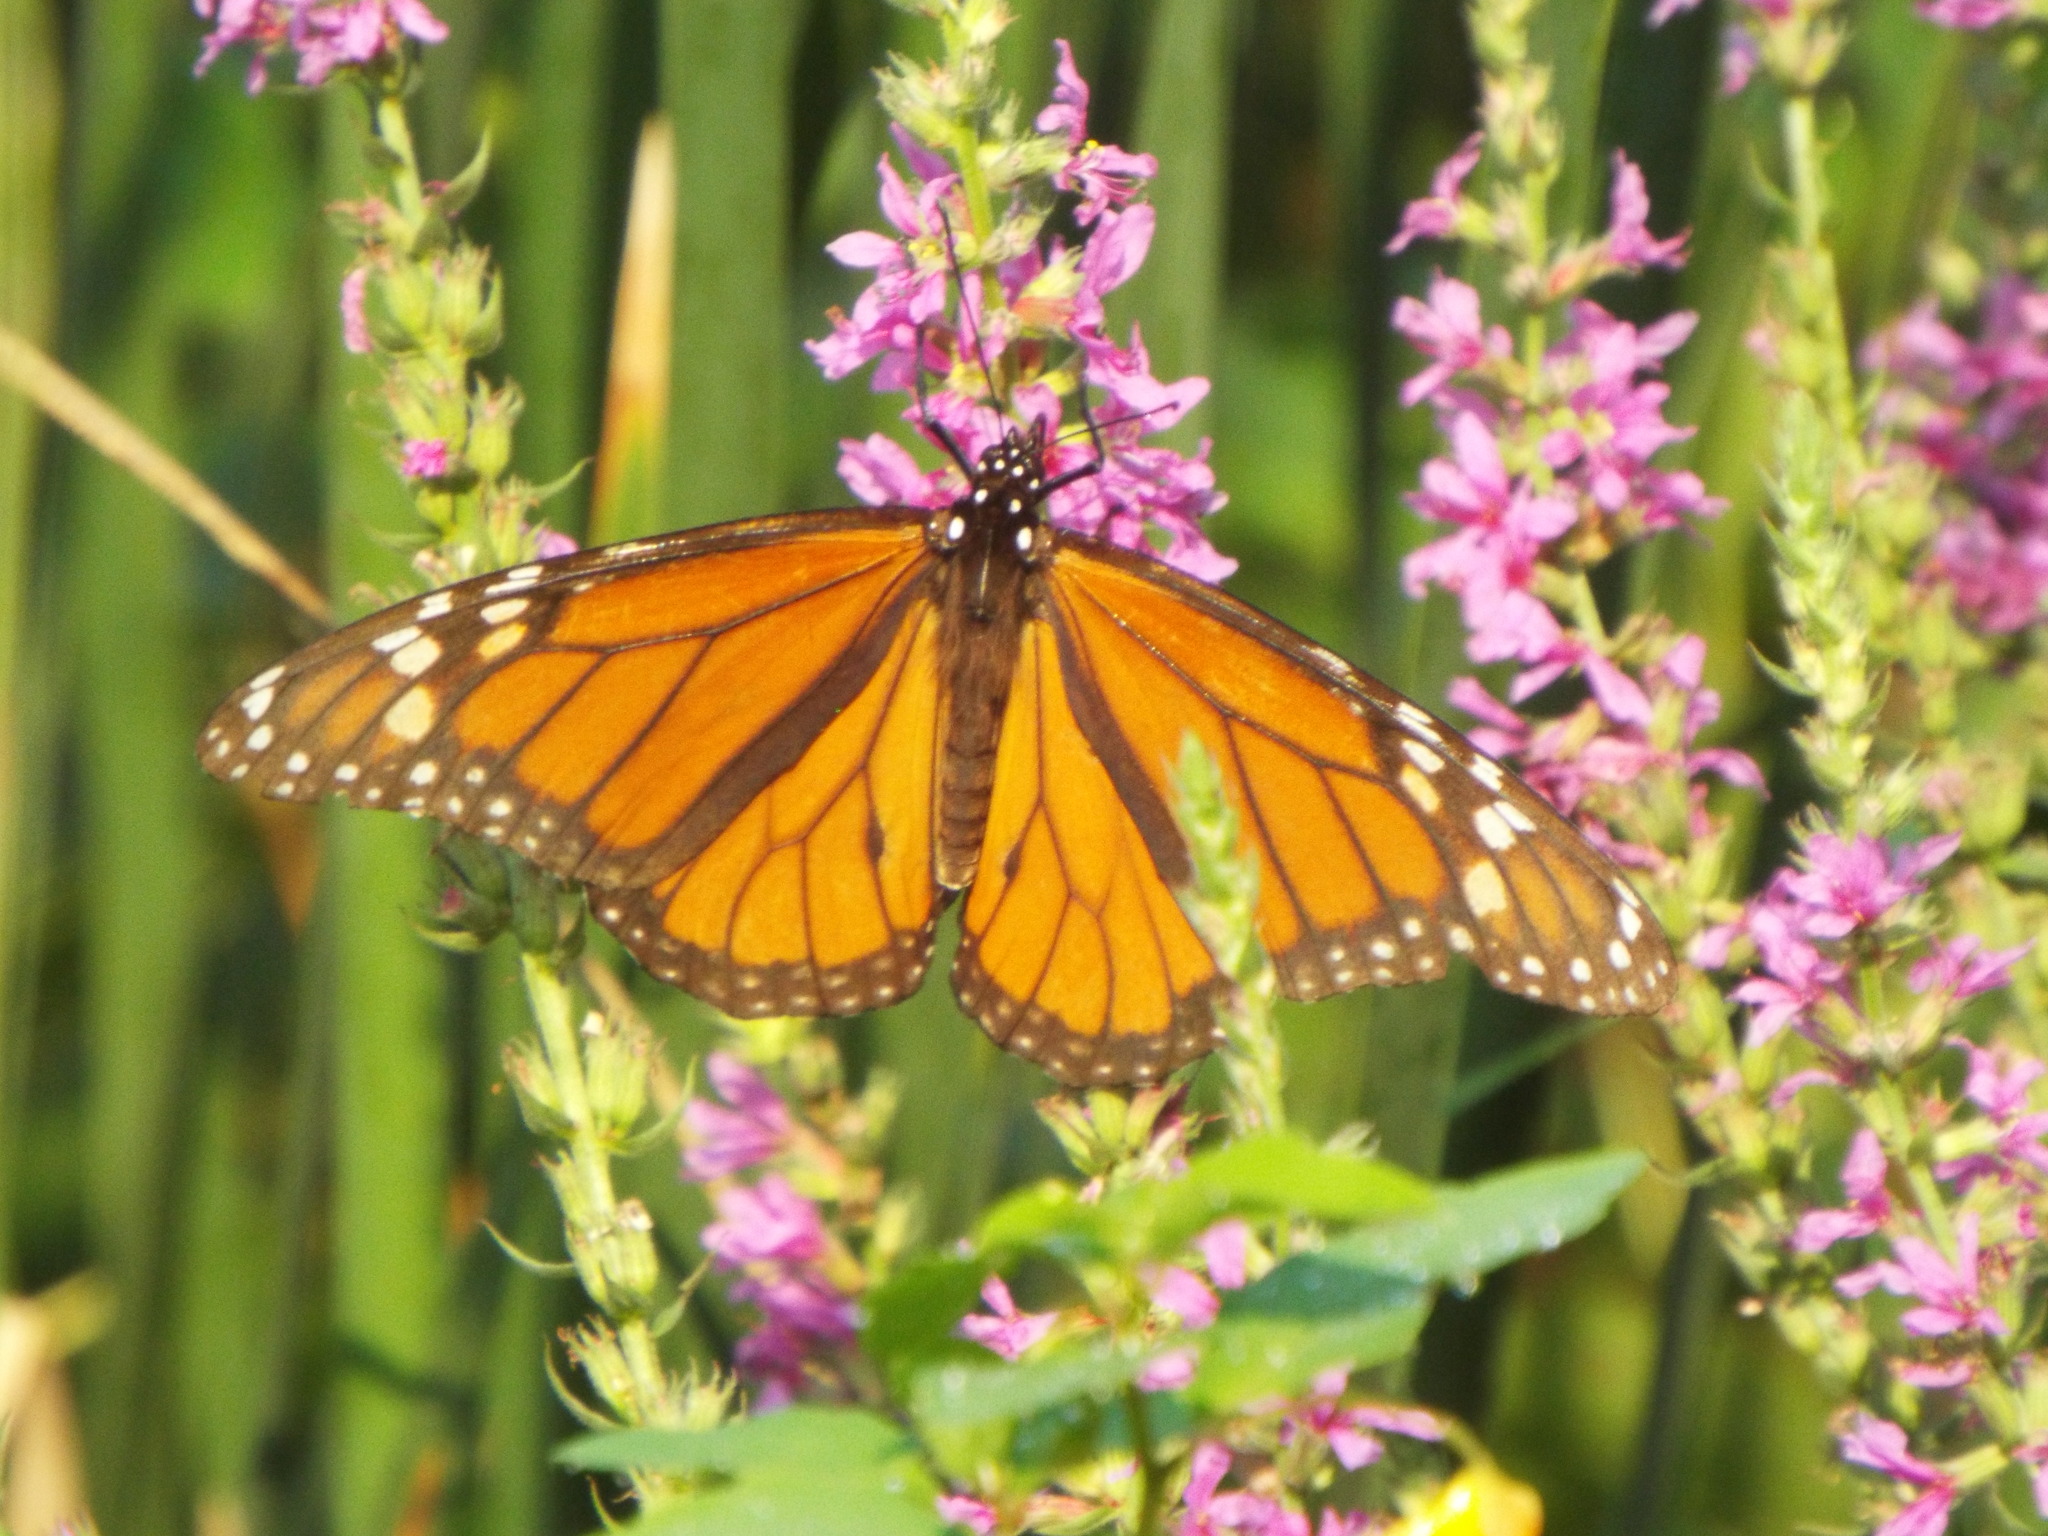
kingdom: Animalia
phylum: Arthropoda
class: Insecta
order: Lepidoptera
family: Nymphalidae
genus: Danaus
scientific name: Danaus plexippus
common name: Monarch
